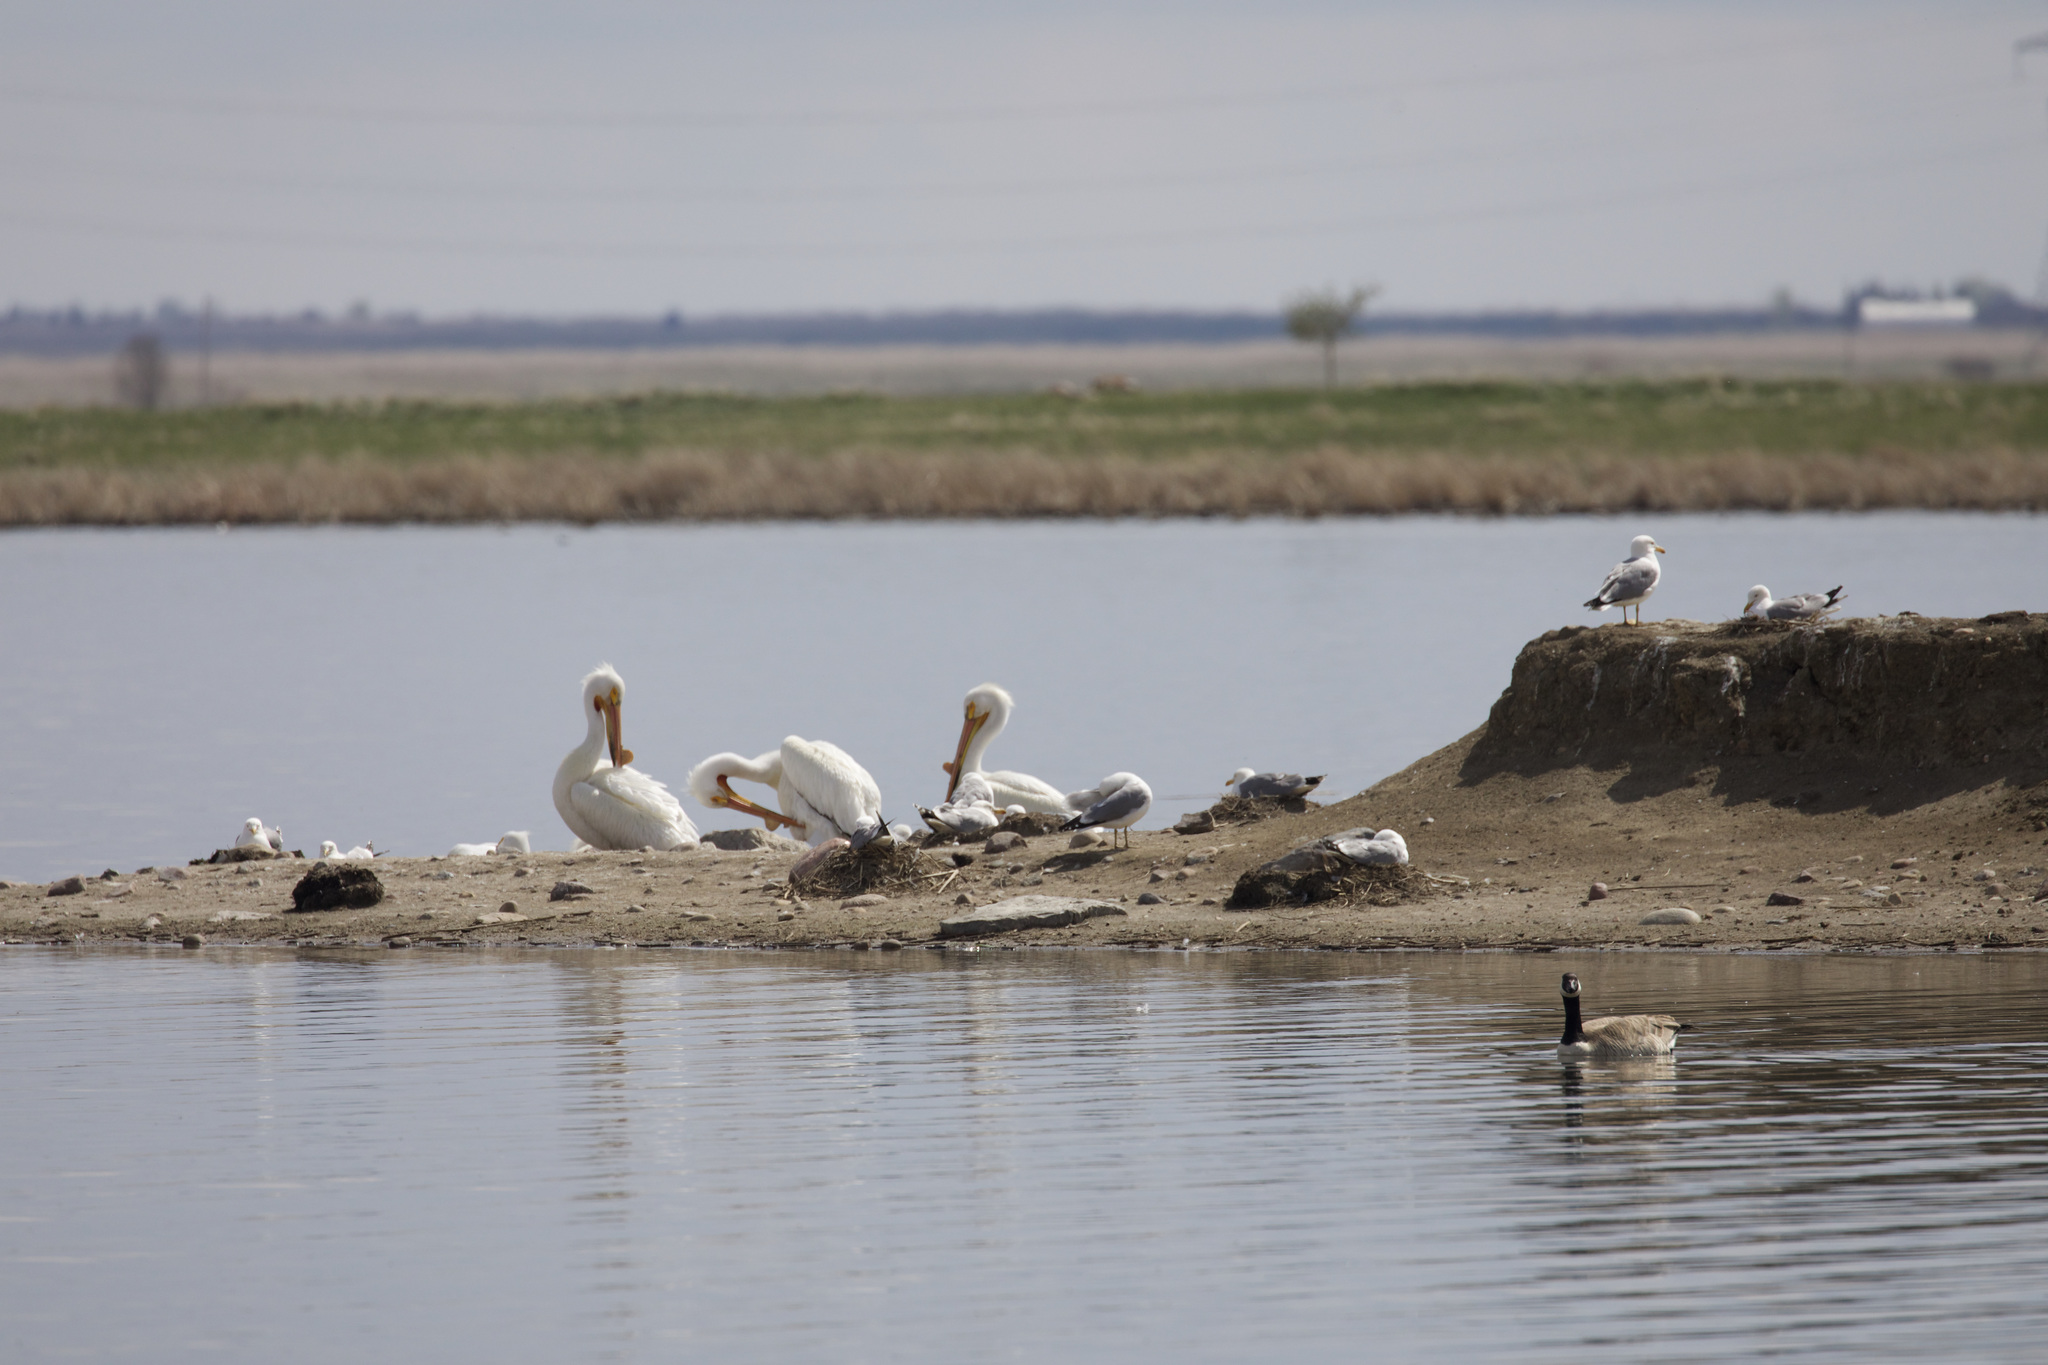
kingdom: Animalia
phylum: Chordata
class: Aves
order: Pelecaniformes
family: Pelecanidae
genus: Pelecanus
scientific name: Pelecanus erythrorhynchos
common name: American white pelican
